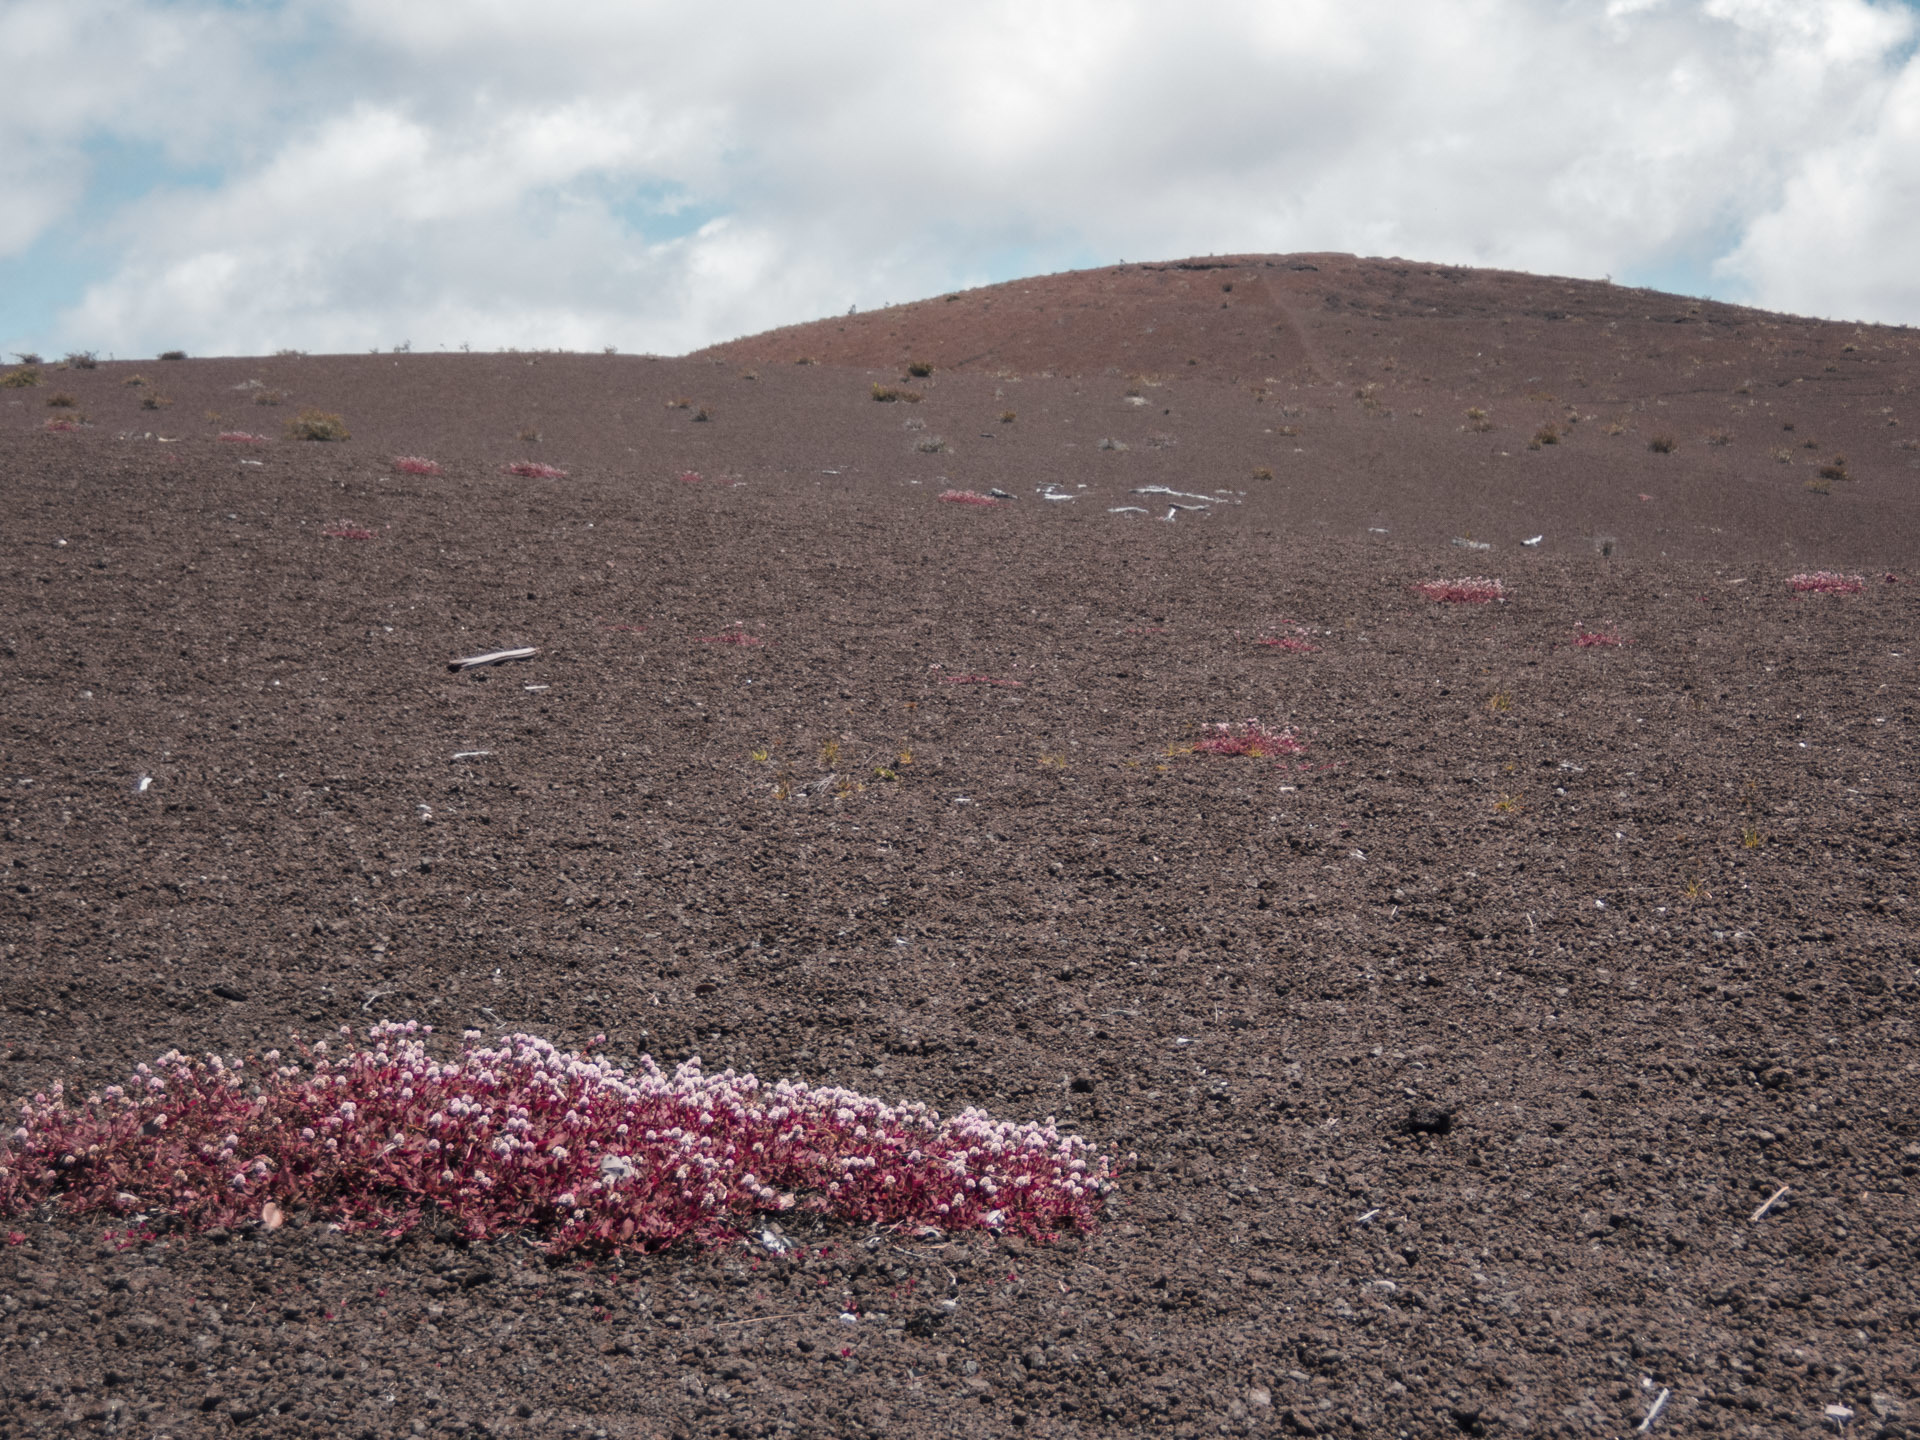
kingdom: Plantae
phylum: Tracheophyta
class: Magnoliopsida
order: Caryophyllales
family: Polygonaceae
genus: Persicaria
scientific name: Persicaria capitata
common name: Pinkhead smartweed
